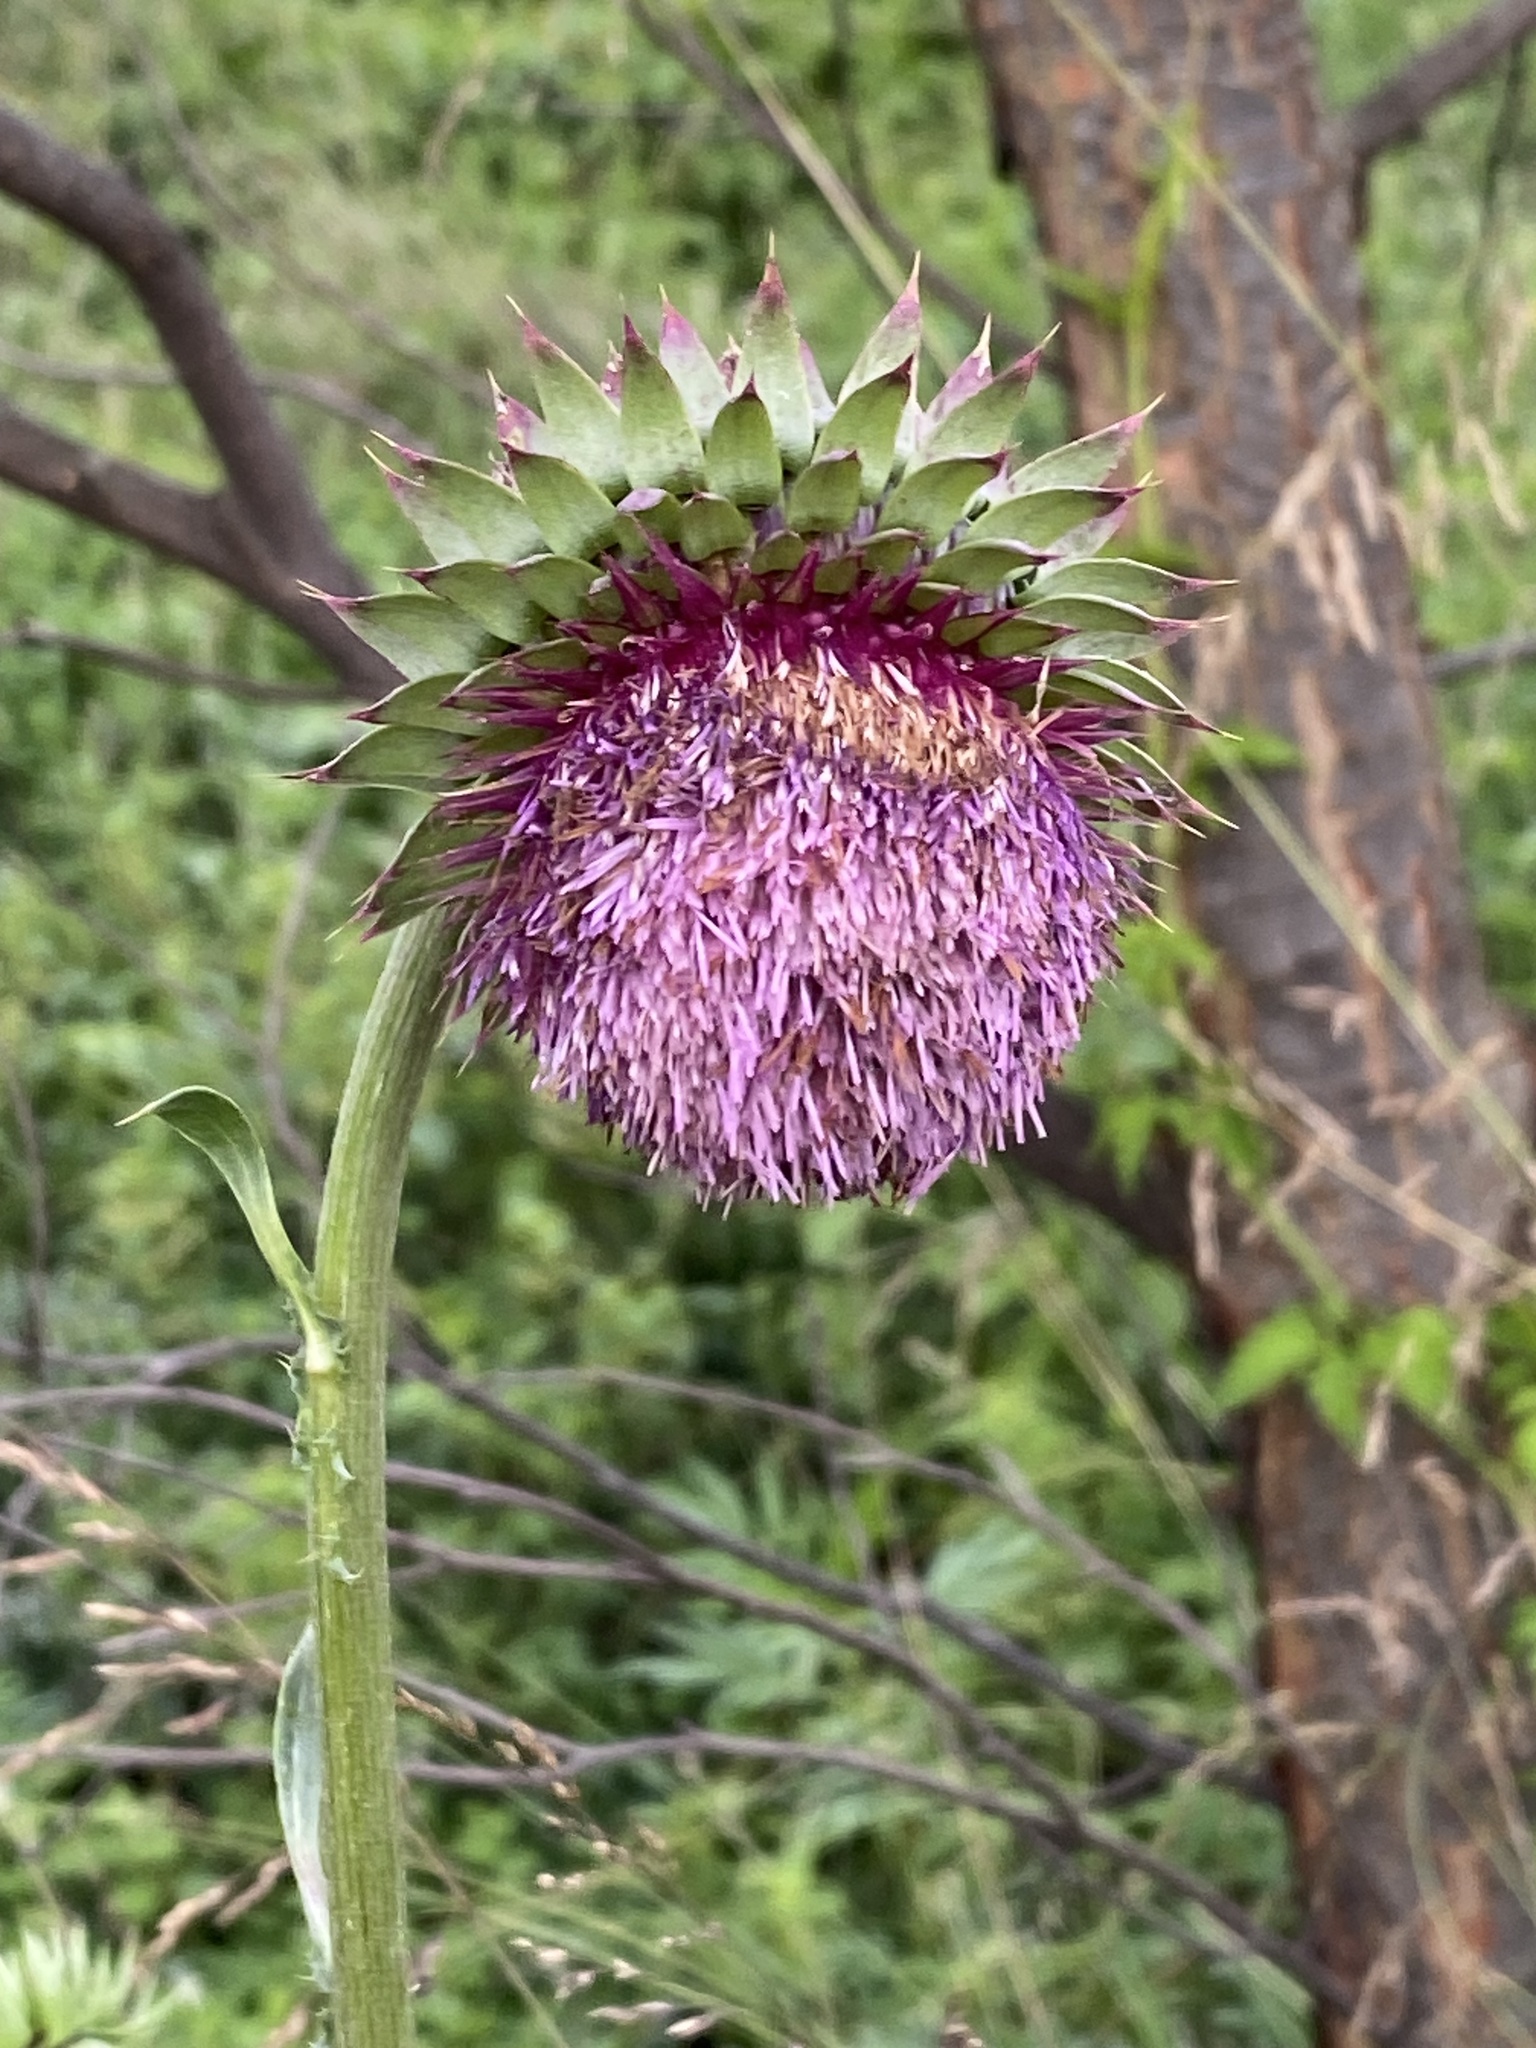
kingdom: Plantae
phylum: Tracheophyta
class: Magnoliopsida
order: Asterales
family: Asteraceae
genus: Carduus
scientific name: Carduus nutans
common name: Musk thistle
